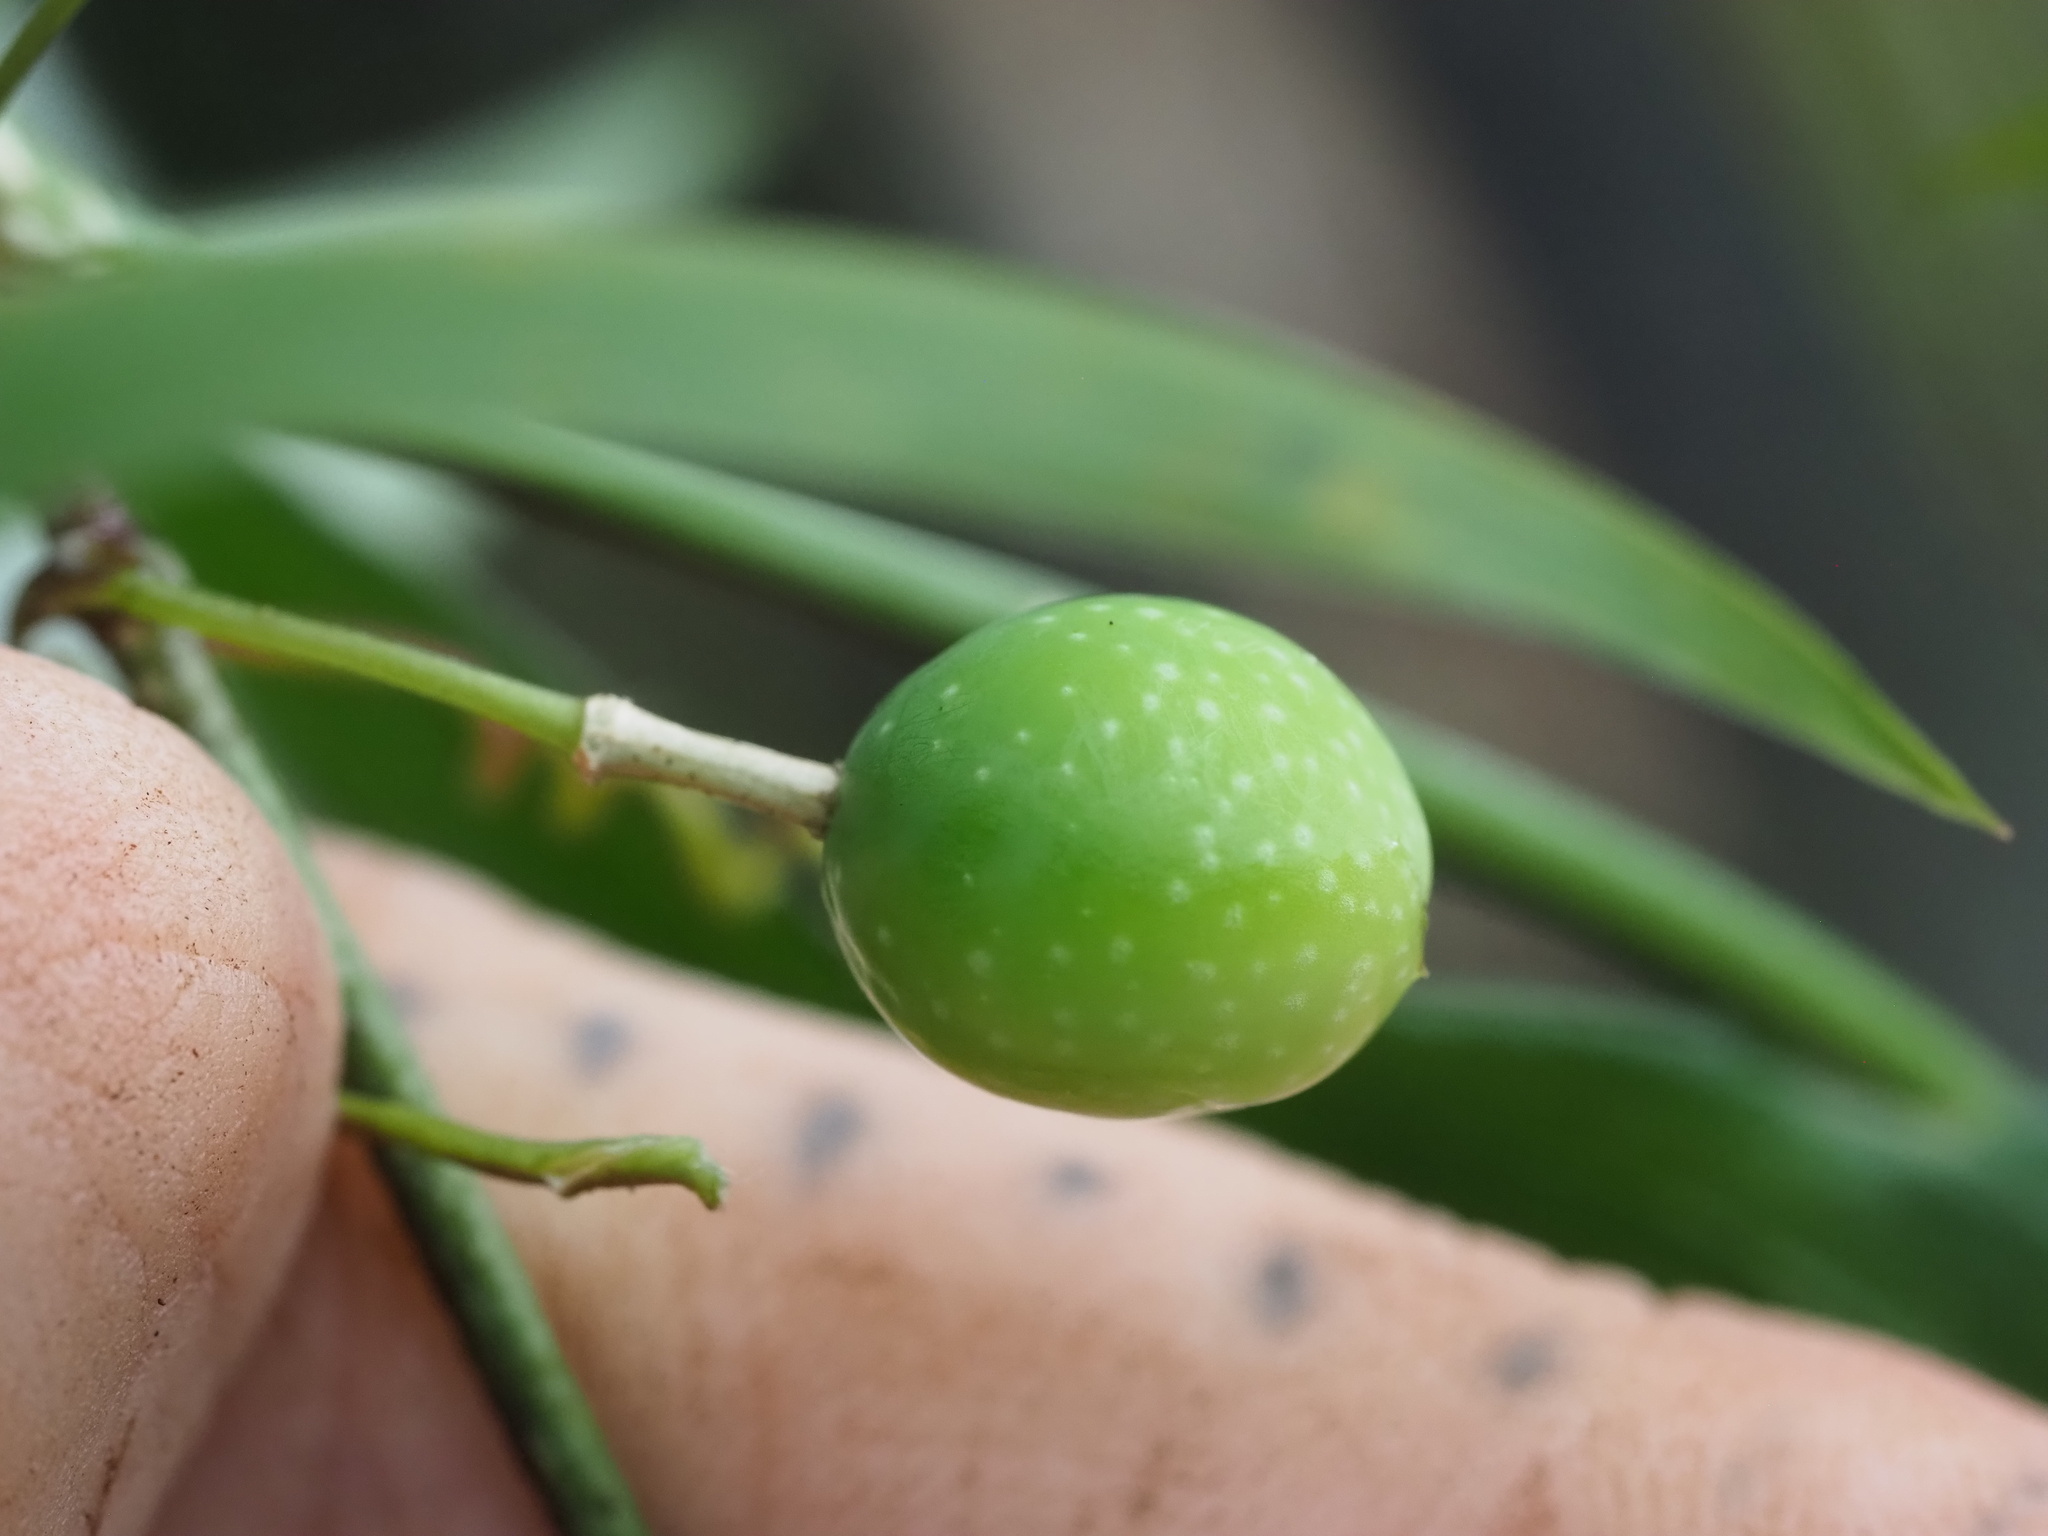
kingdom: Plantae
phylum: Tracheophyta
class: Magnoliopsida
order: Malpighiales
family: Passifloraceae
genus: Passiflora
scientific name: Passiflora suberosa
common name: Wild passionfruit
